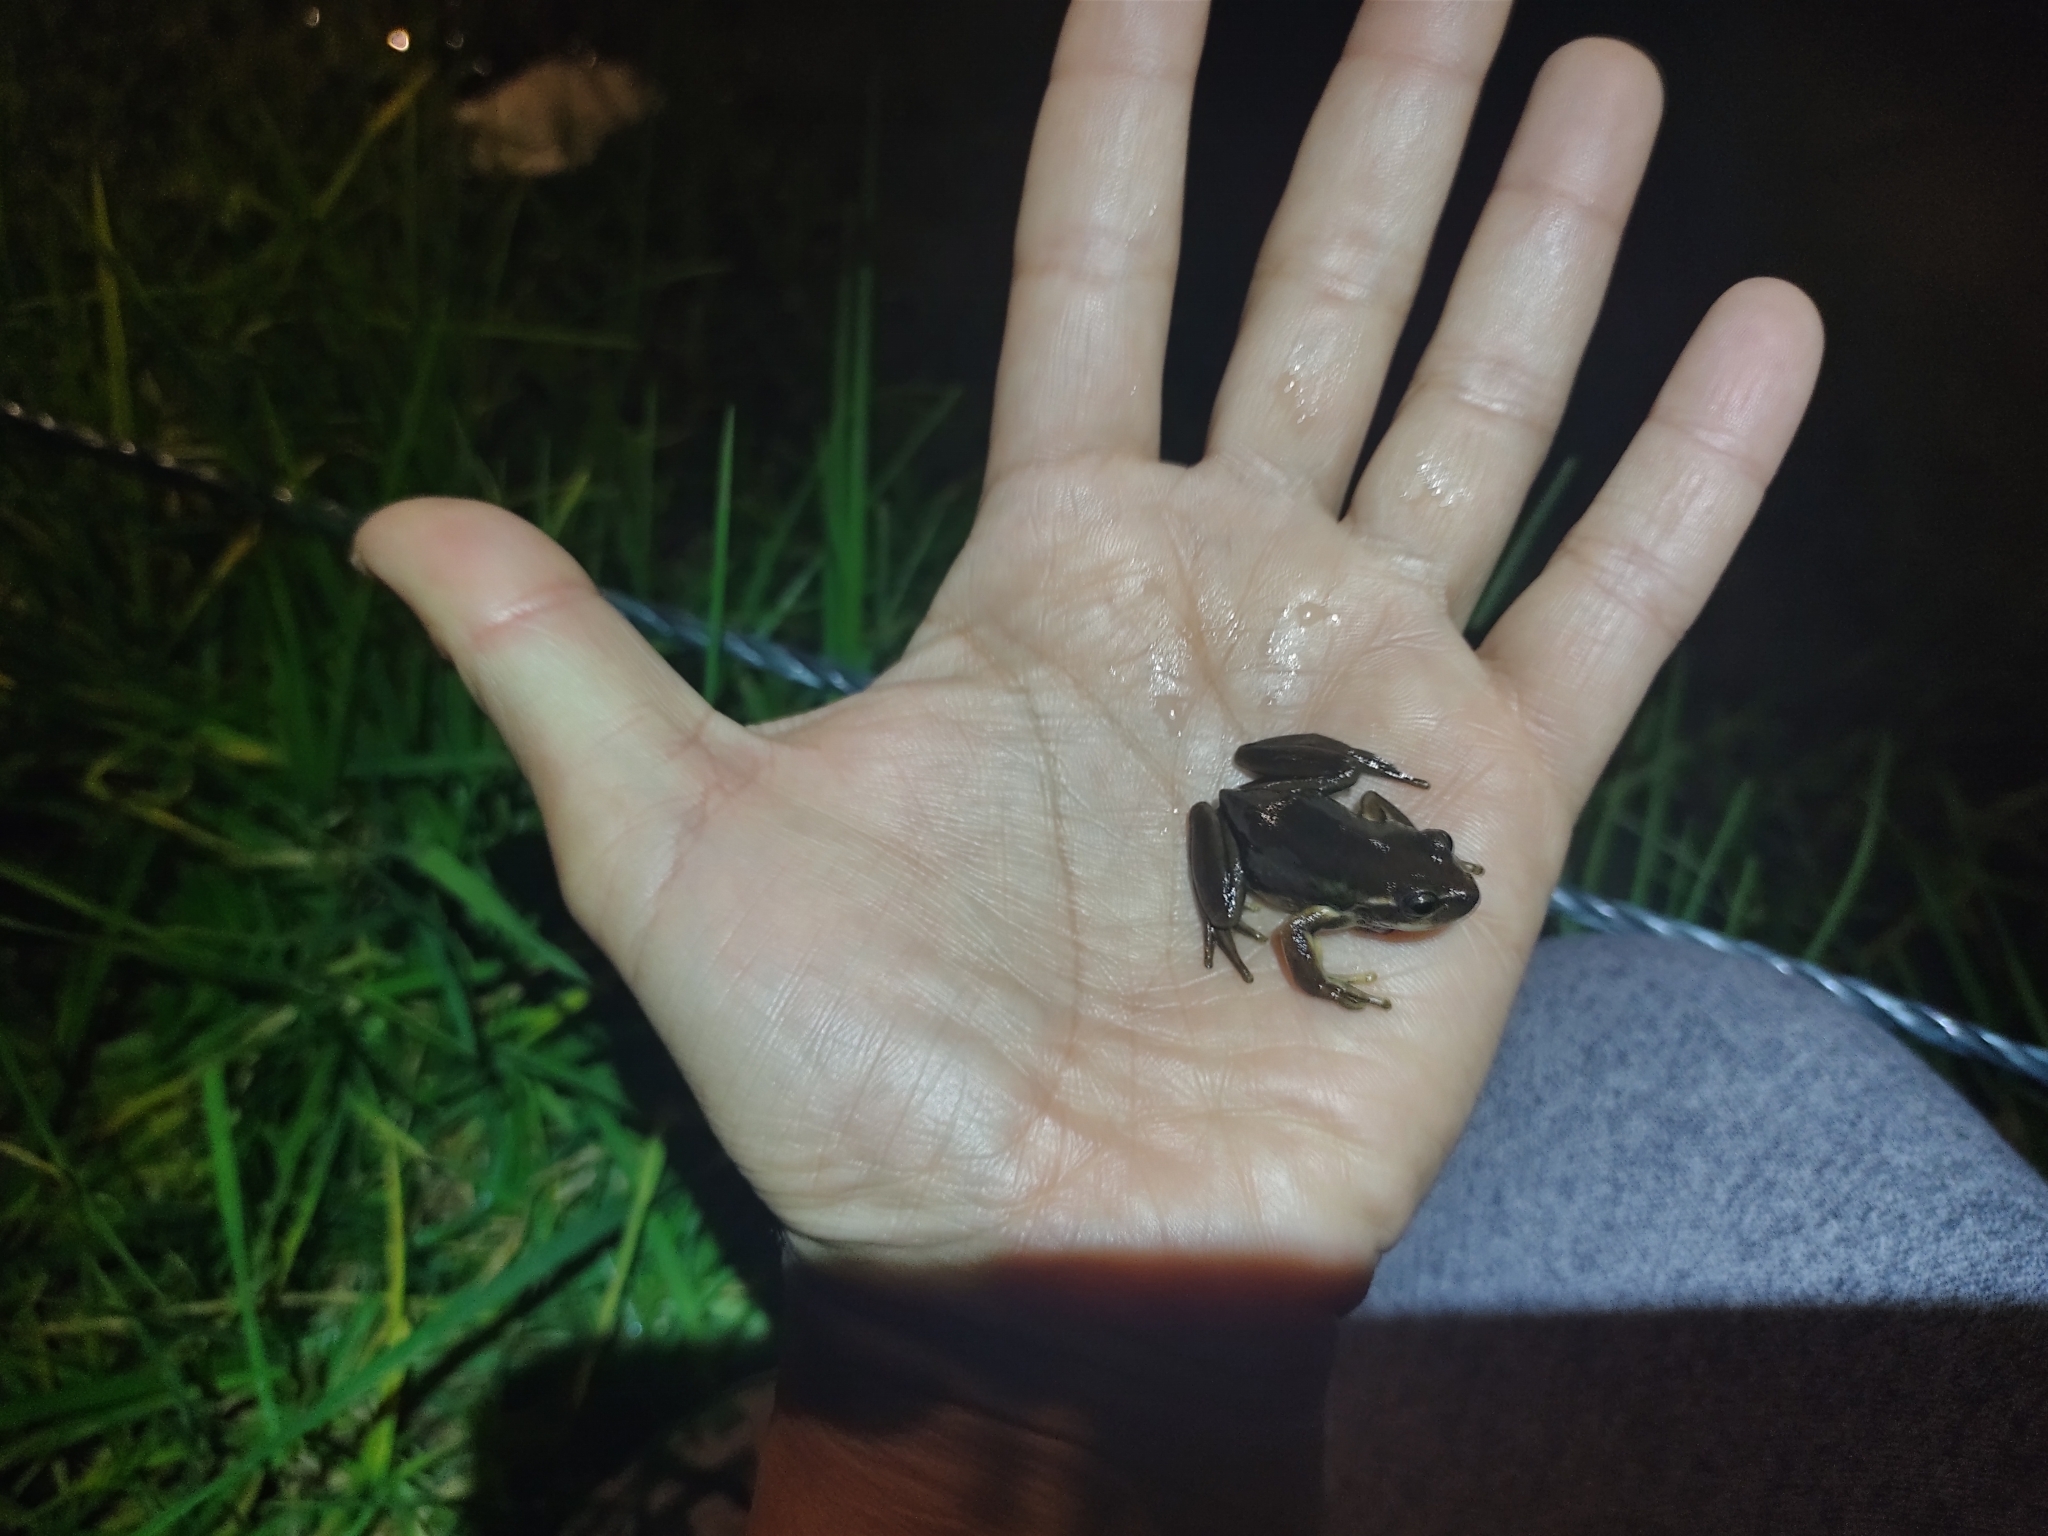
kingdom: Animalia
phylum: Chordata
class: Amphibia
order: Anura
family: Hylidae
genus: Dendropsophus
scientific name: Dendropsophus molitor
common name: Green dotted treefrog
